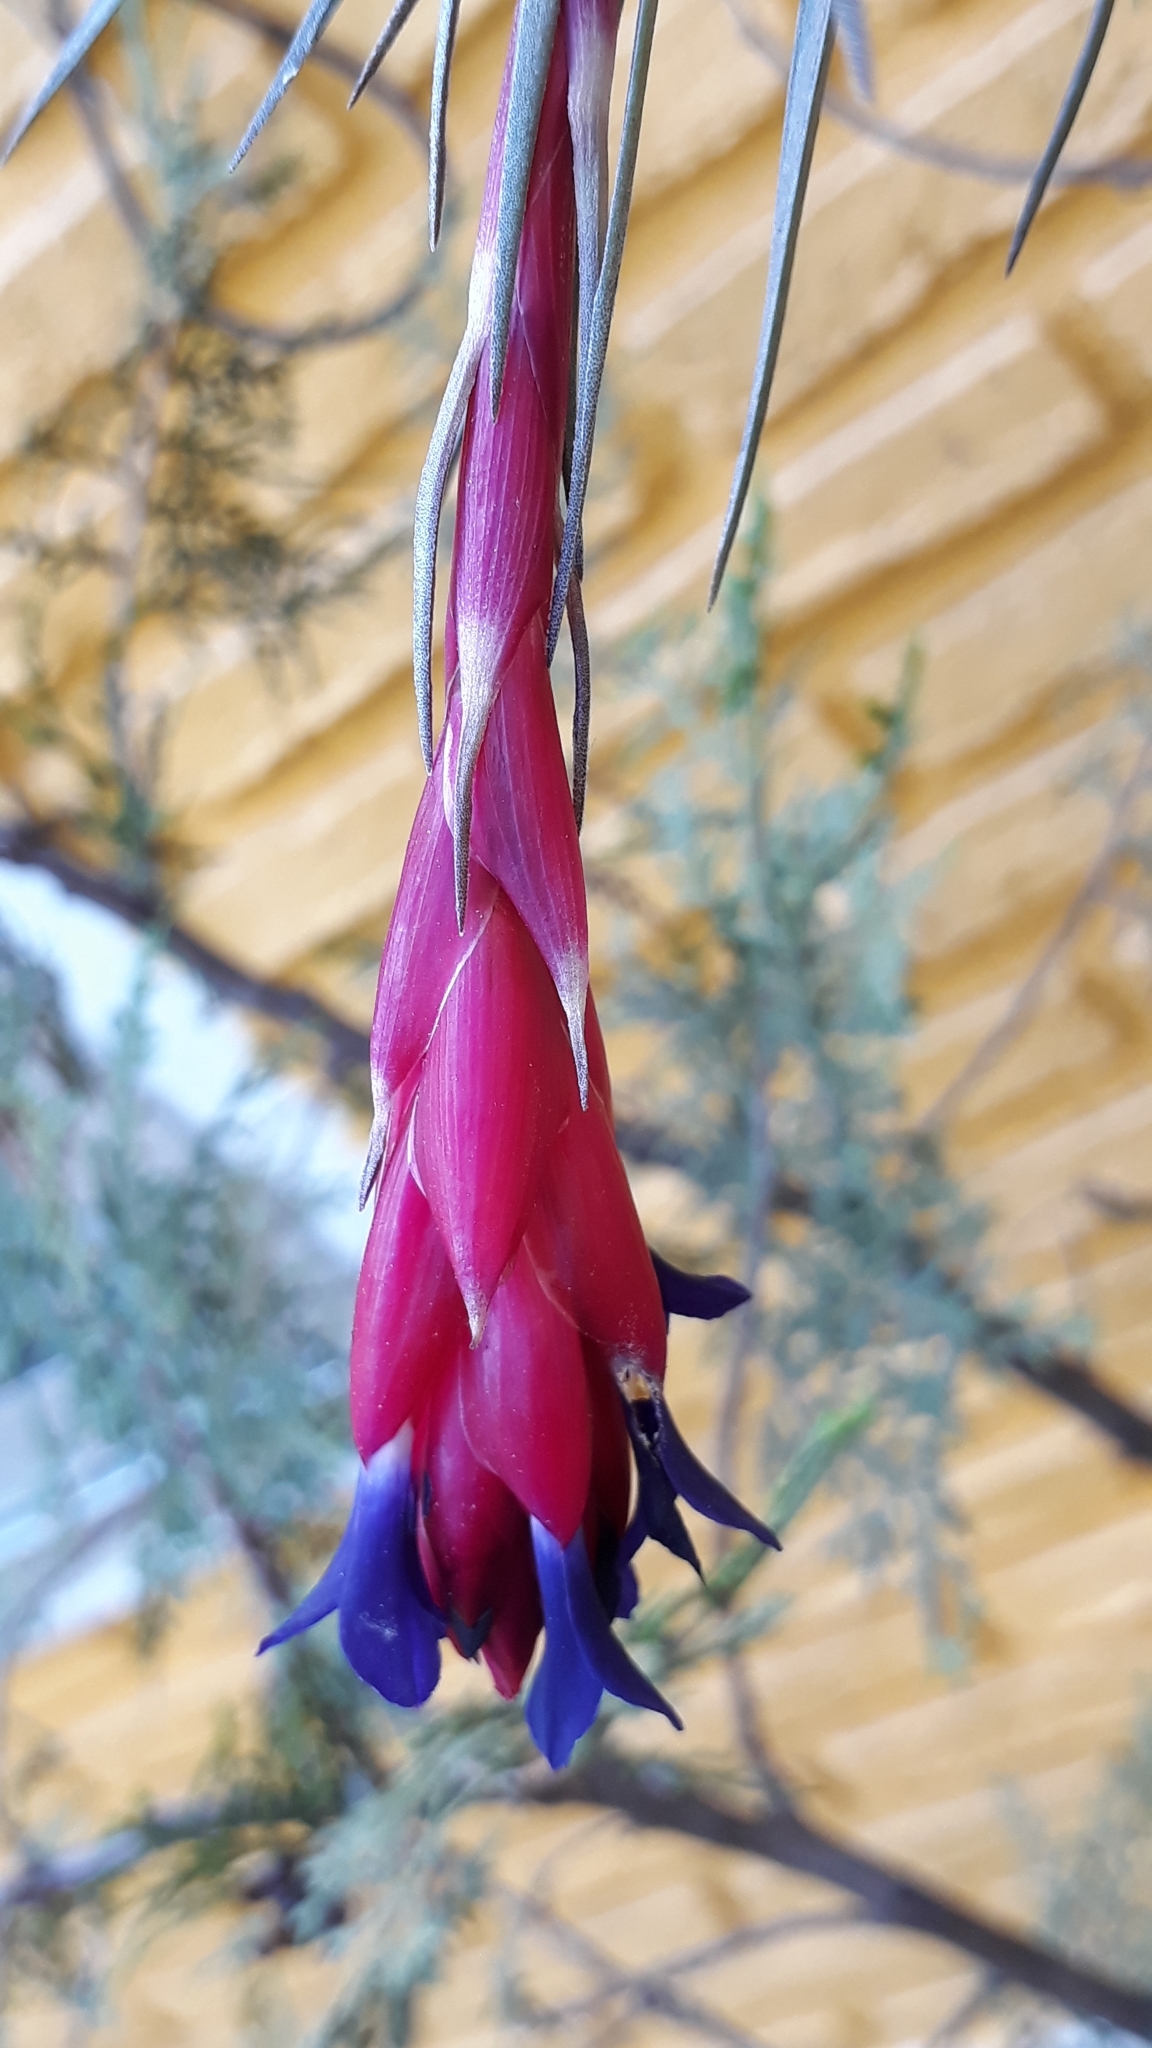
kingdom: Plantae
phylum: Tracheophyta
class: Liliopsida
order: Poales
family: Bromeliaceae
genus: Tillandsia
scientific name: Tillandsia aeranthos
